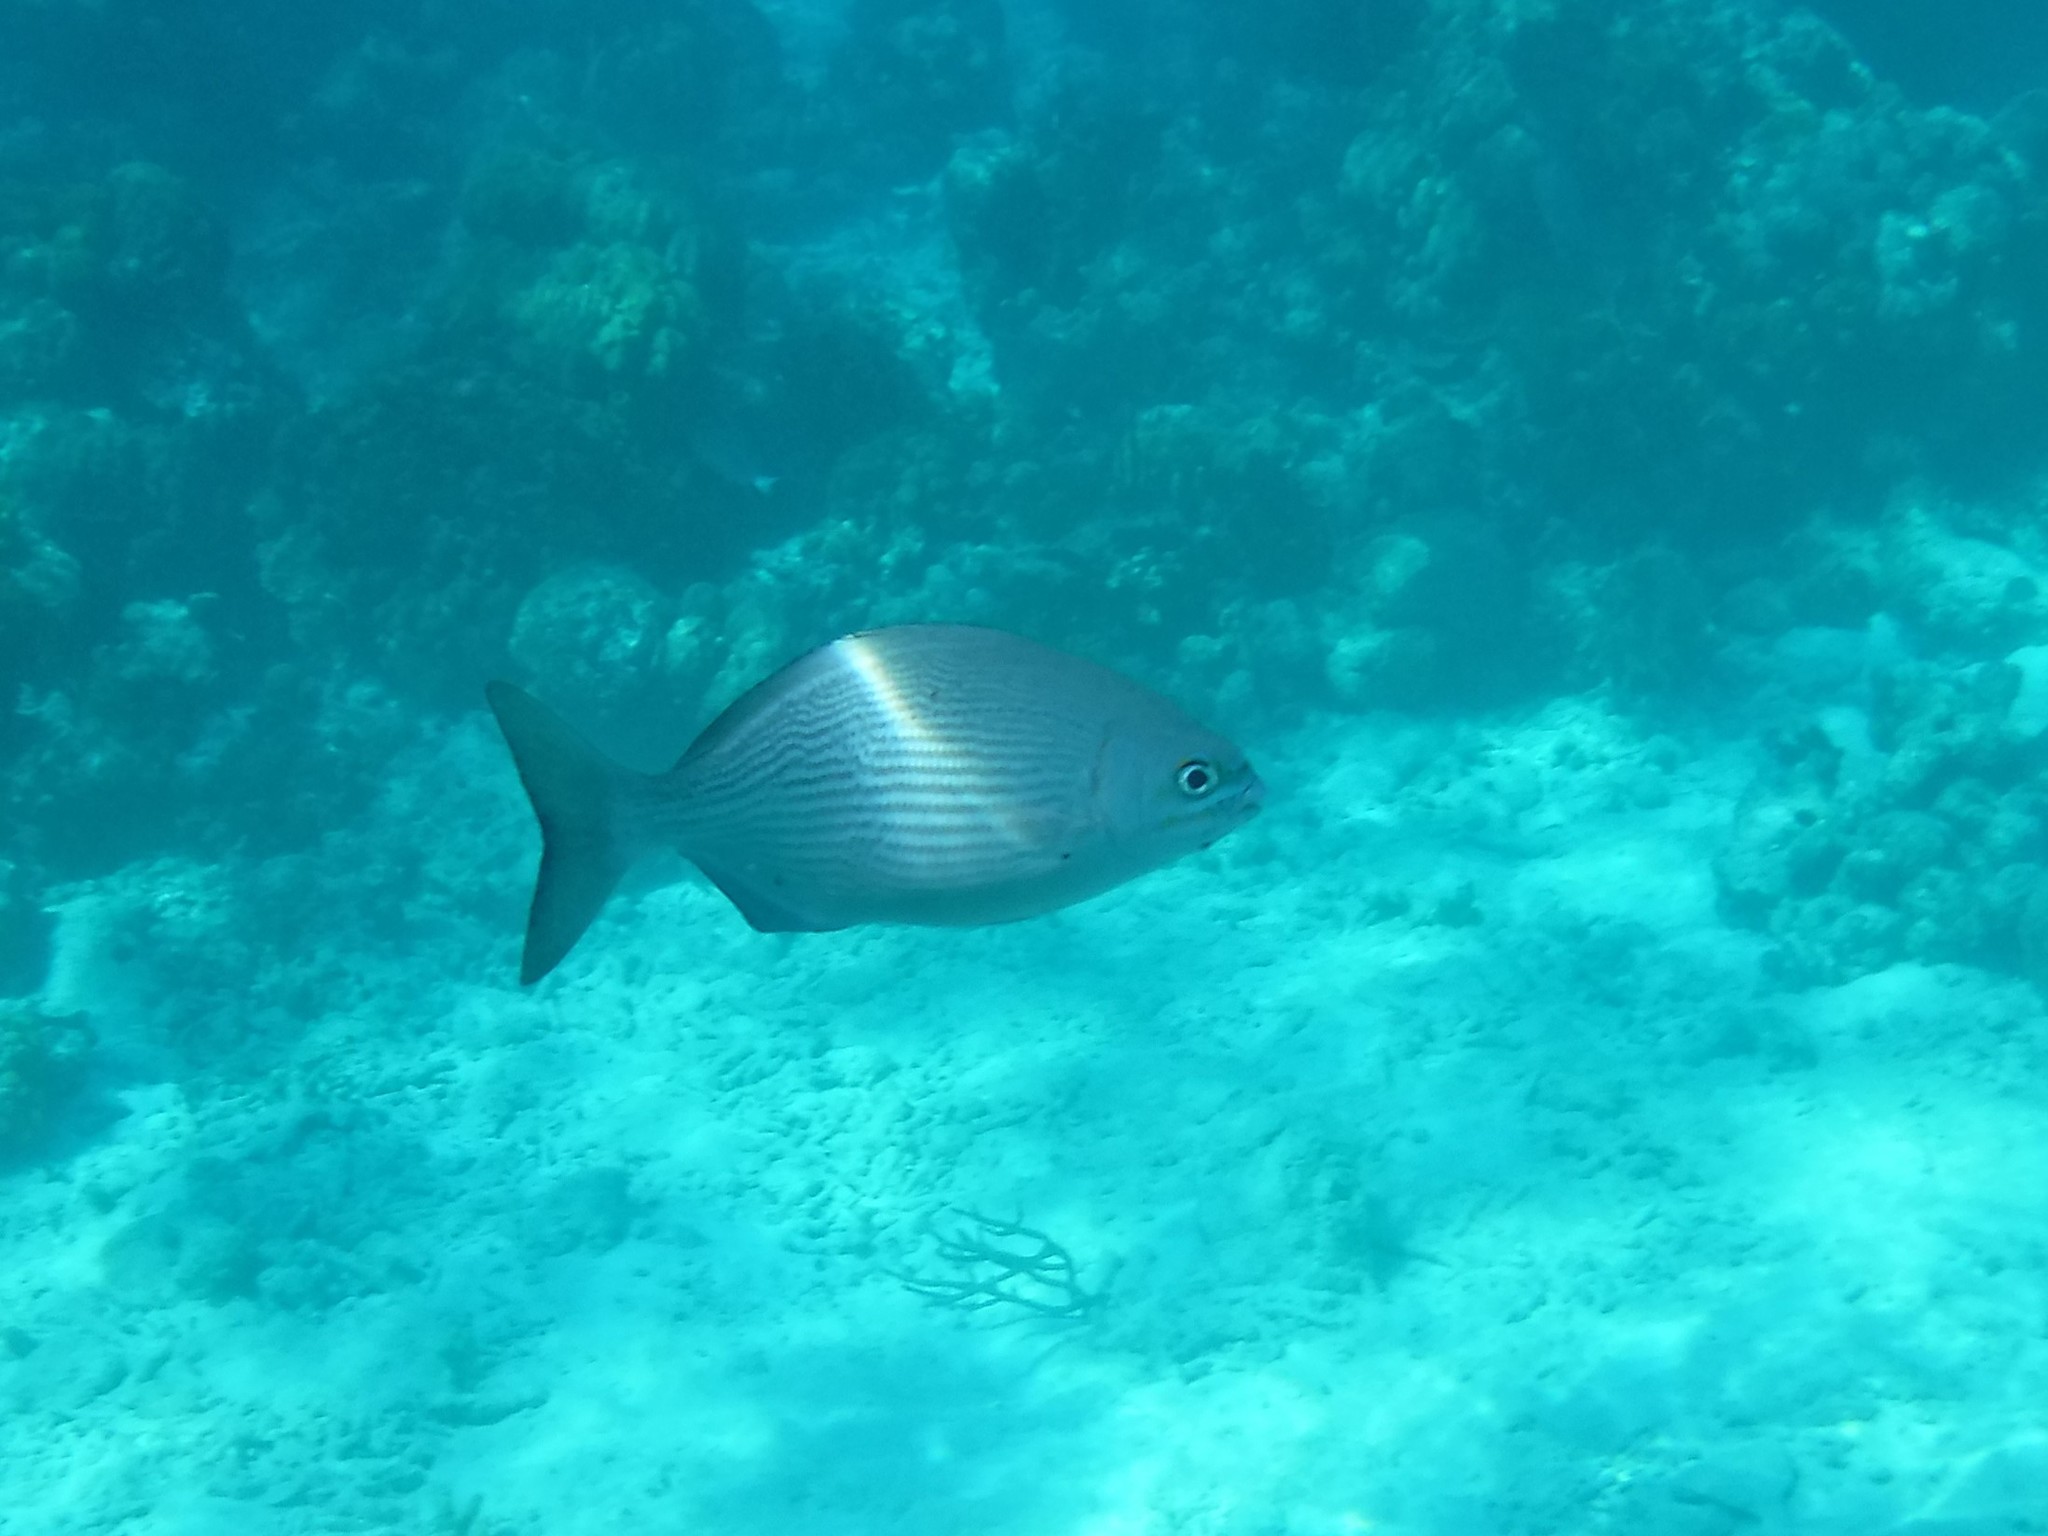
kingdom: Animalia
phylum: Chordata
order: Perciformes
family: Kyphosidae
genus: Kyphosus
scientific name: Kyphosus vaigiensis
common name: Brassy chub
